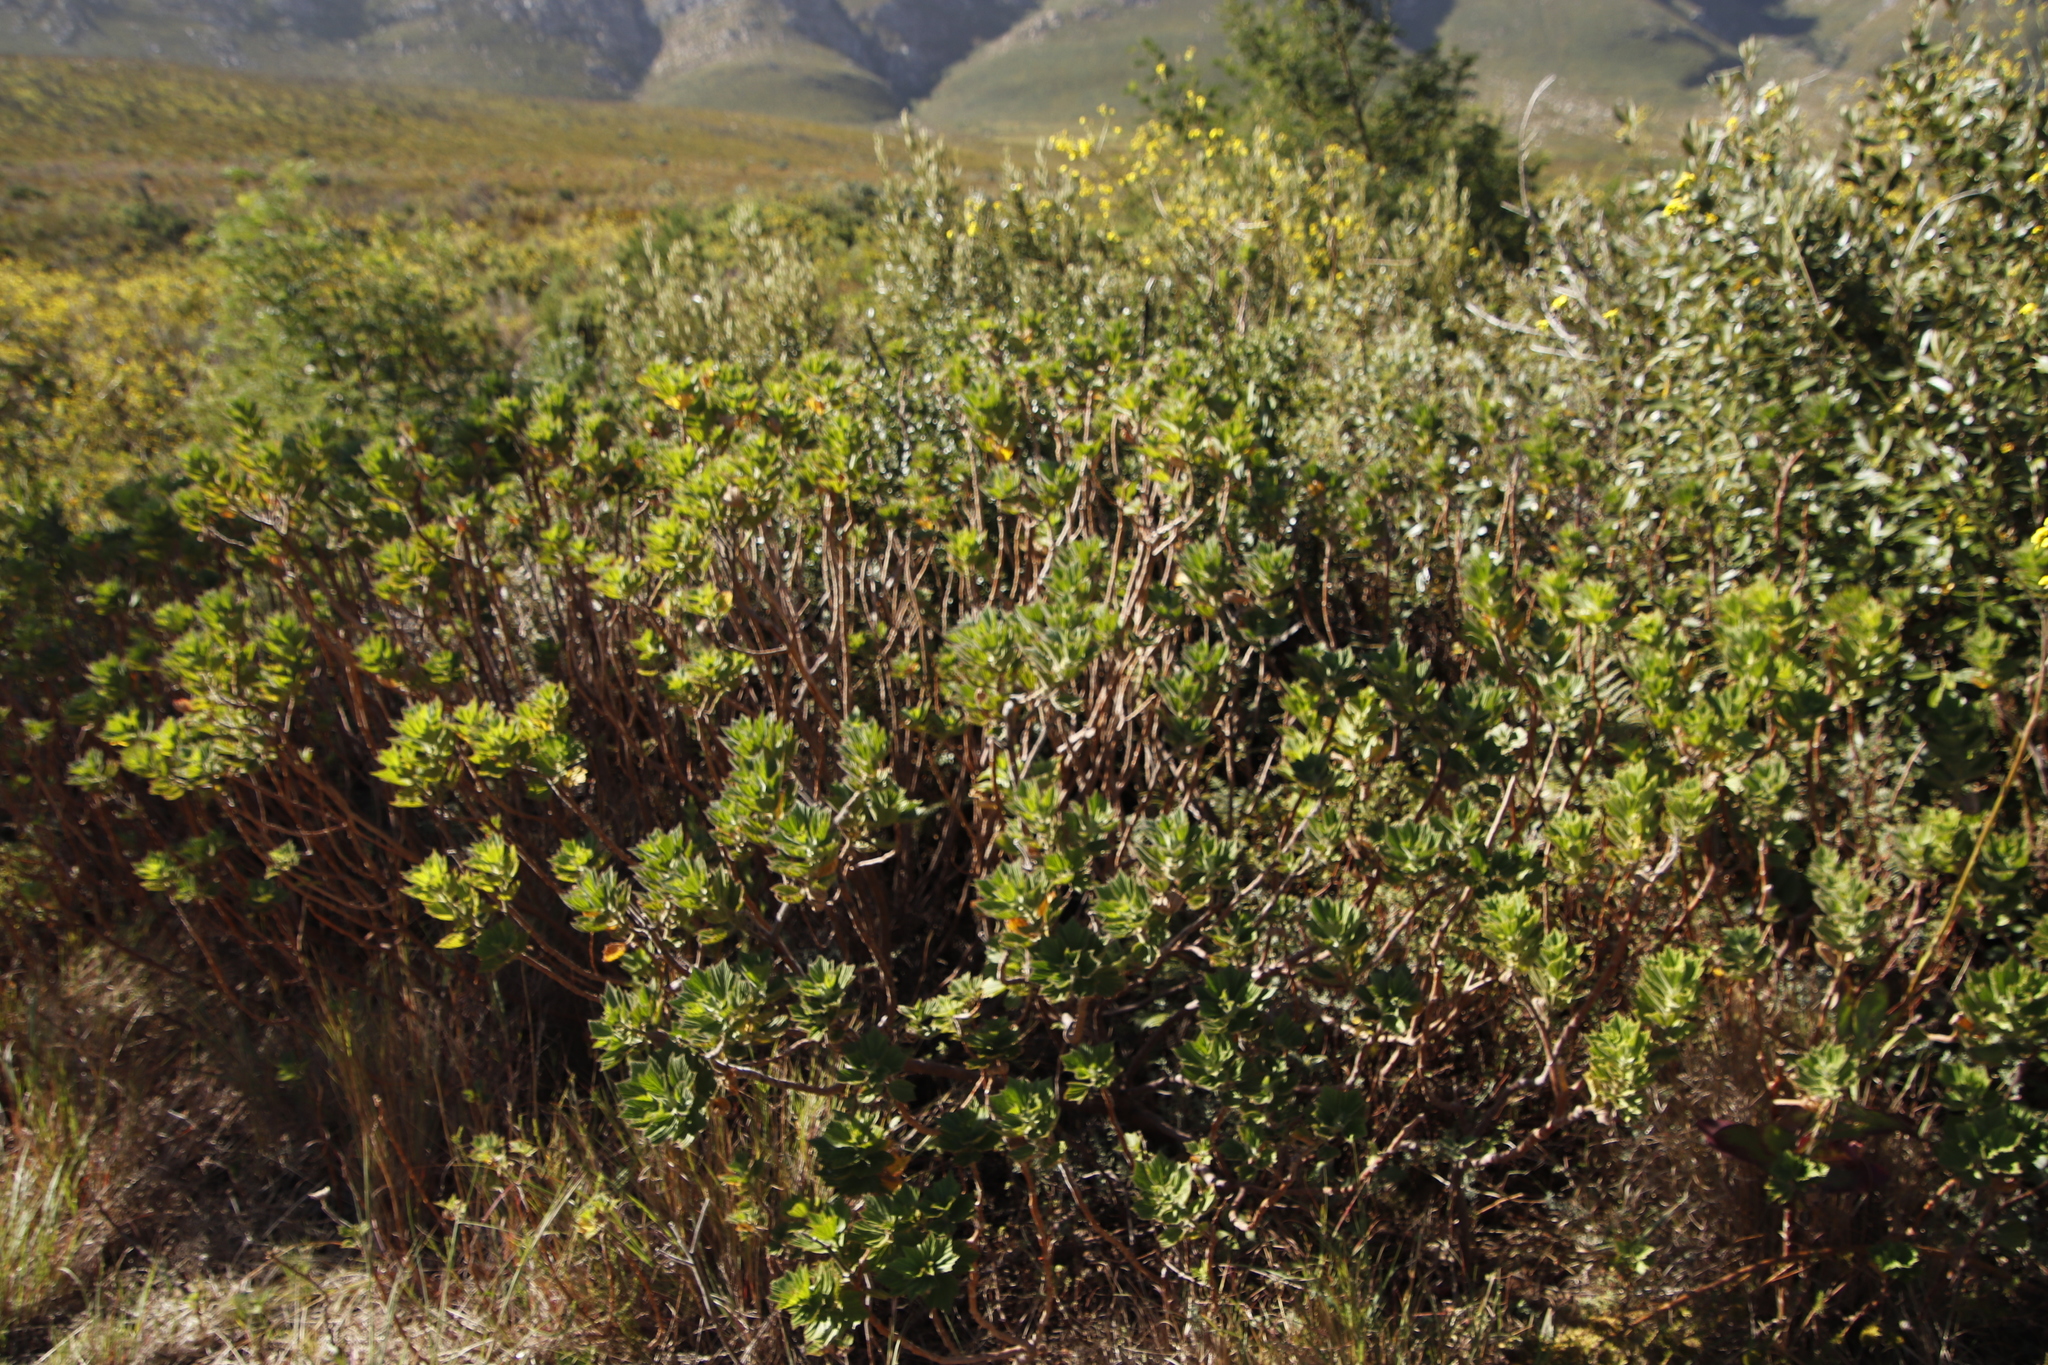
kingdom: Plantae
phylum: Tracheophyta
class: Magnoliopsida
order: Geraniales
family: Geraniaceae
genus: Pelargonium
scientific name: Pelargonium cucullatum
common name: Tree pelargonium
